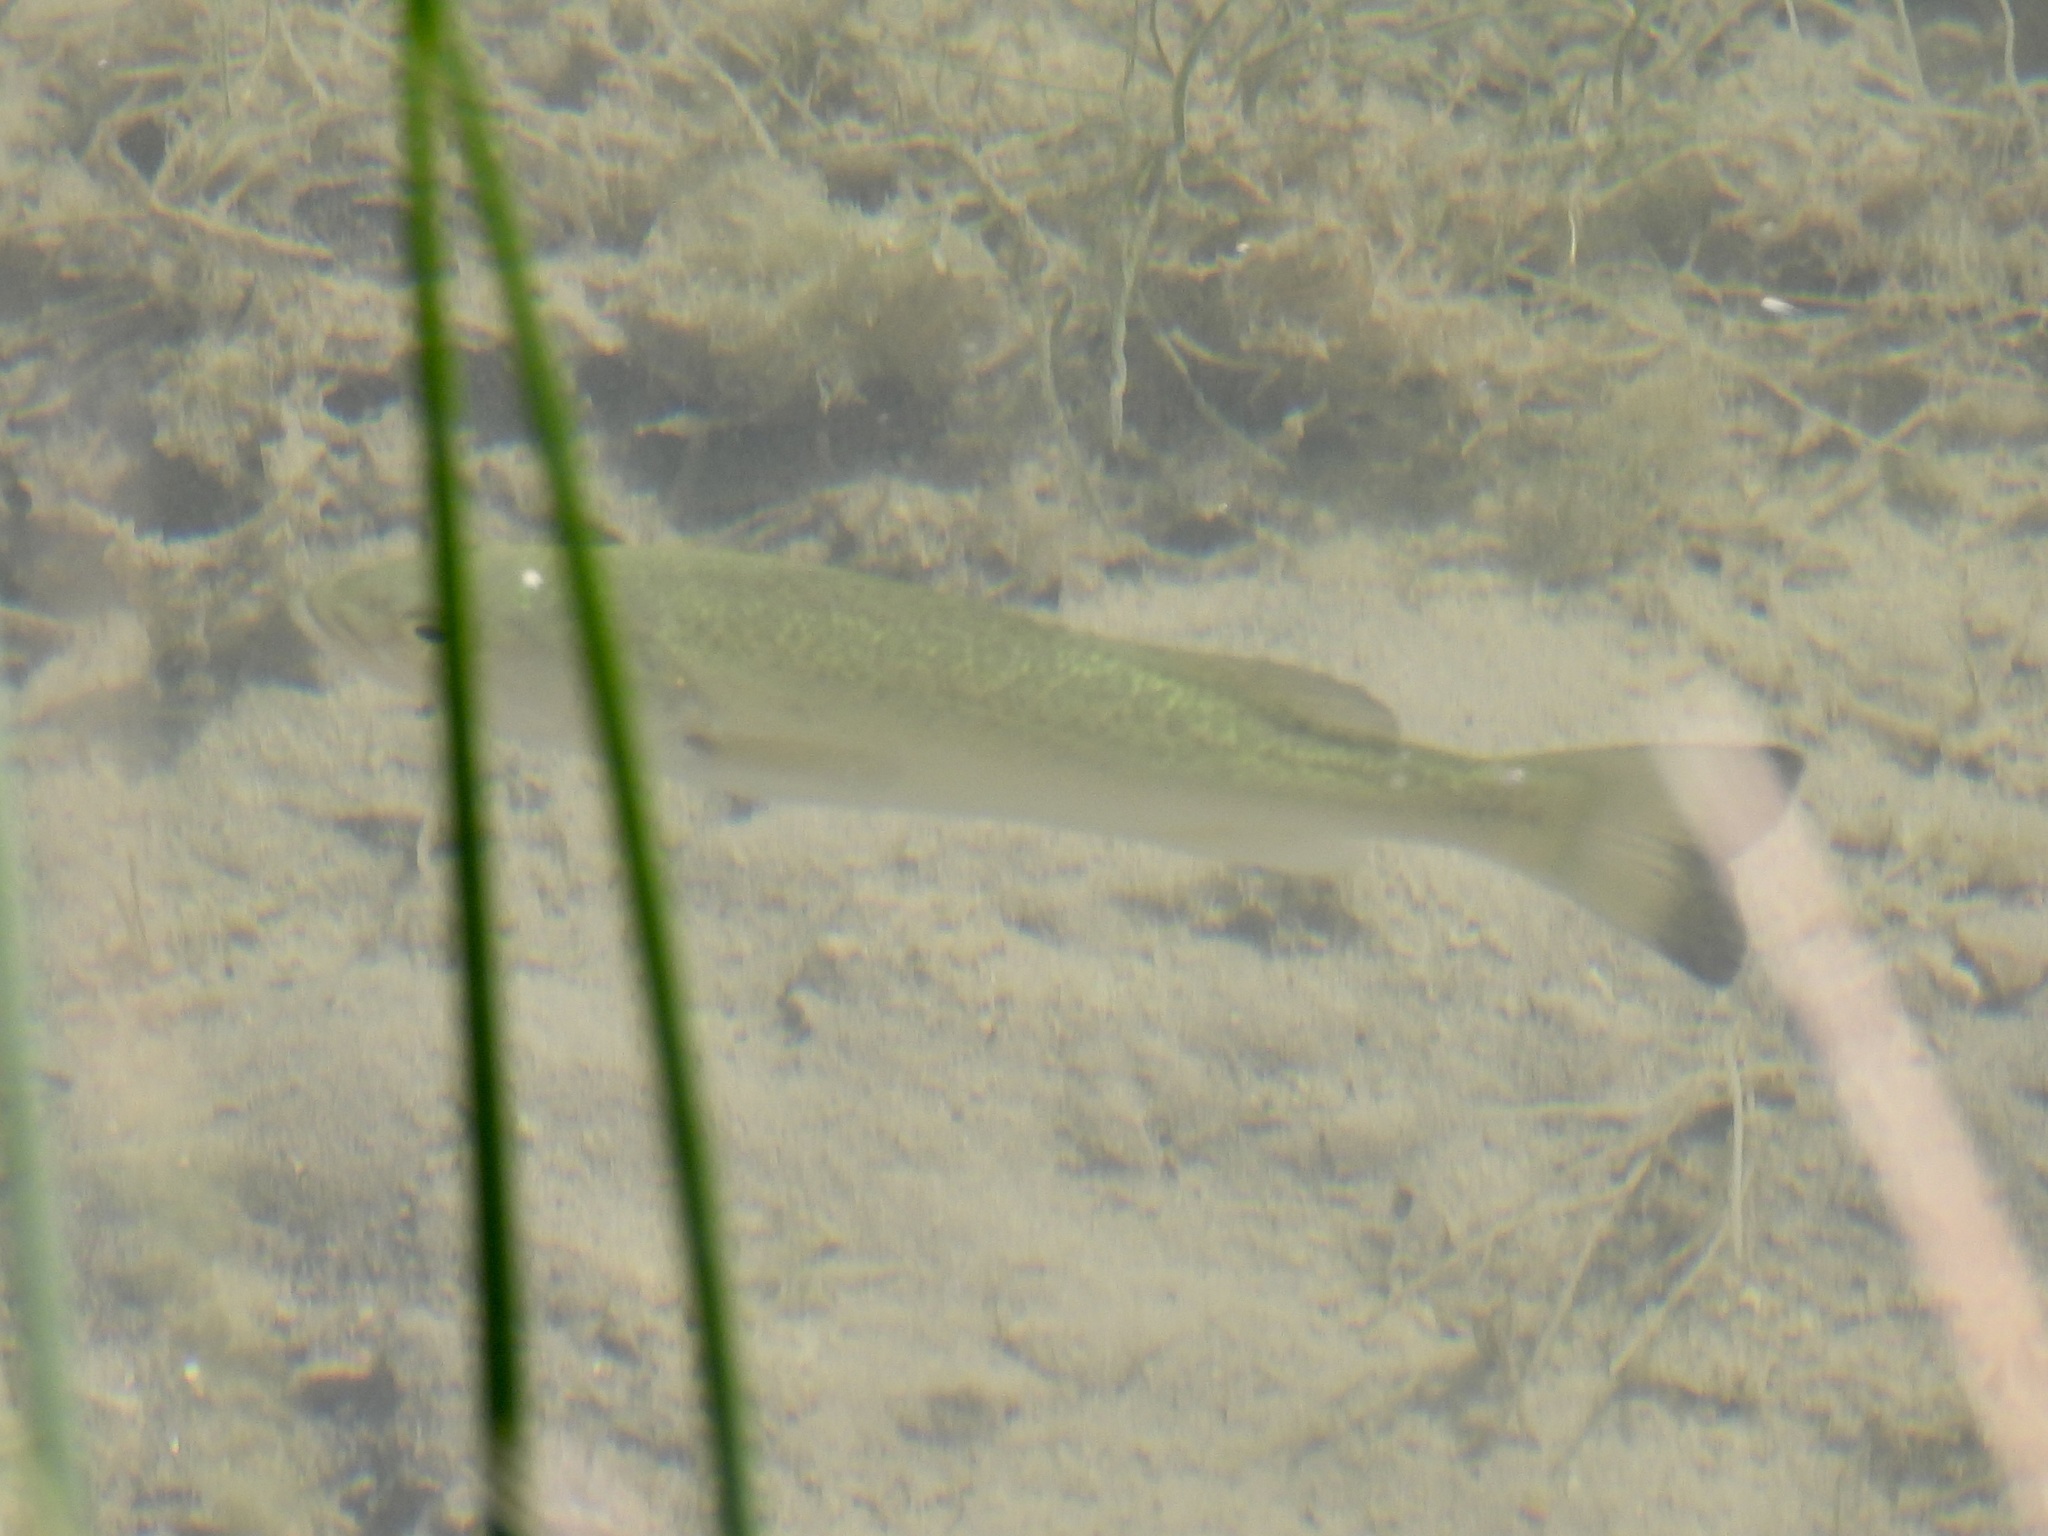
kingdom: Animalia
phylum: Chordata
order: Perciformes
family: Centrarchidae
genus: Micropterus
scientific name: Micropterus
